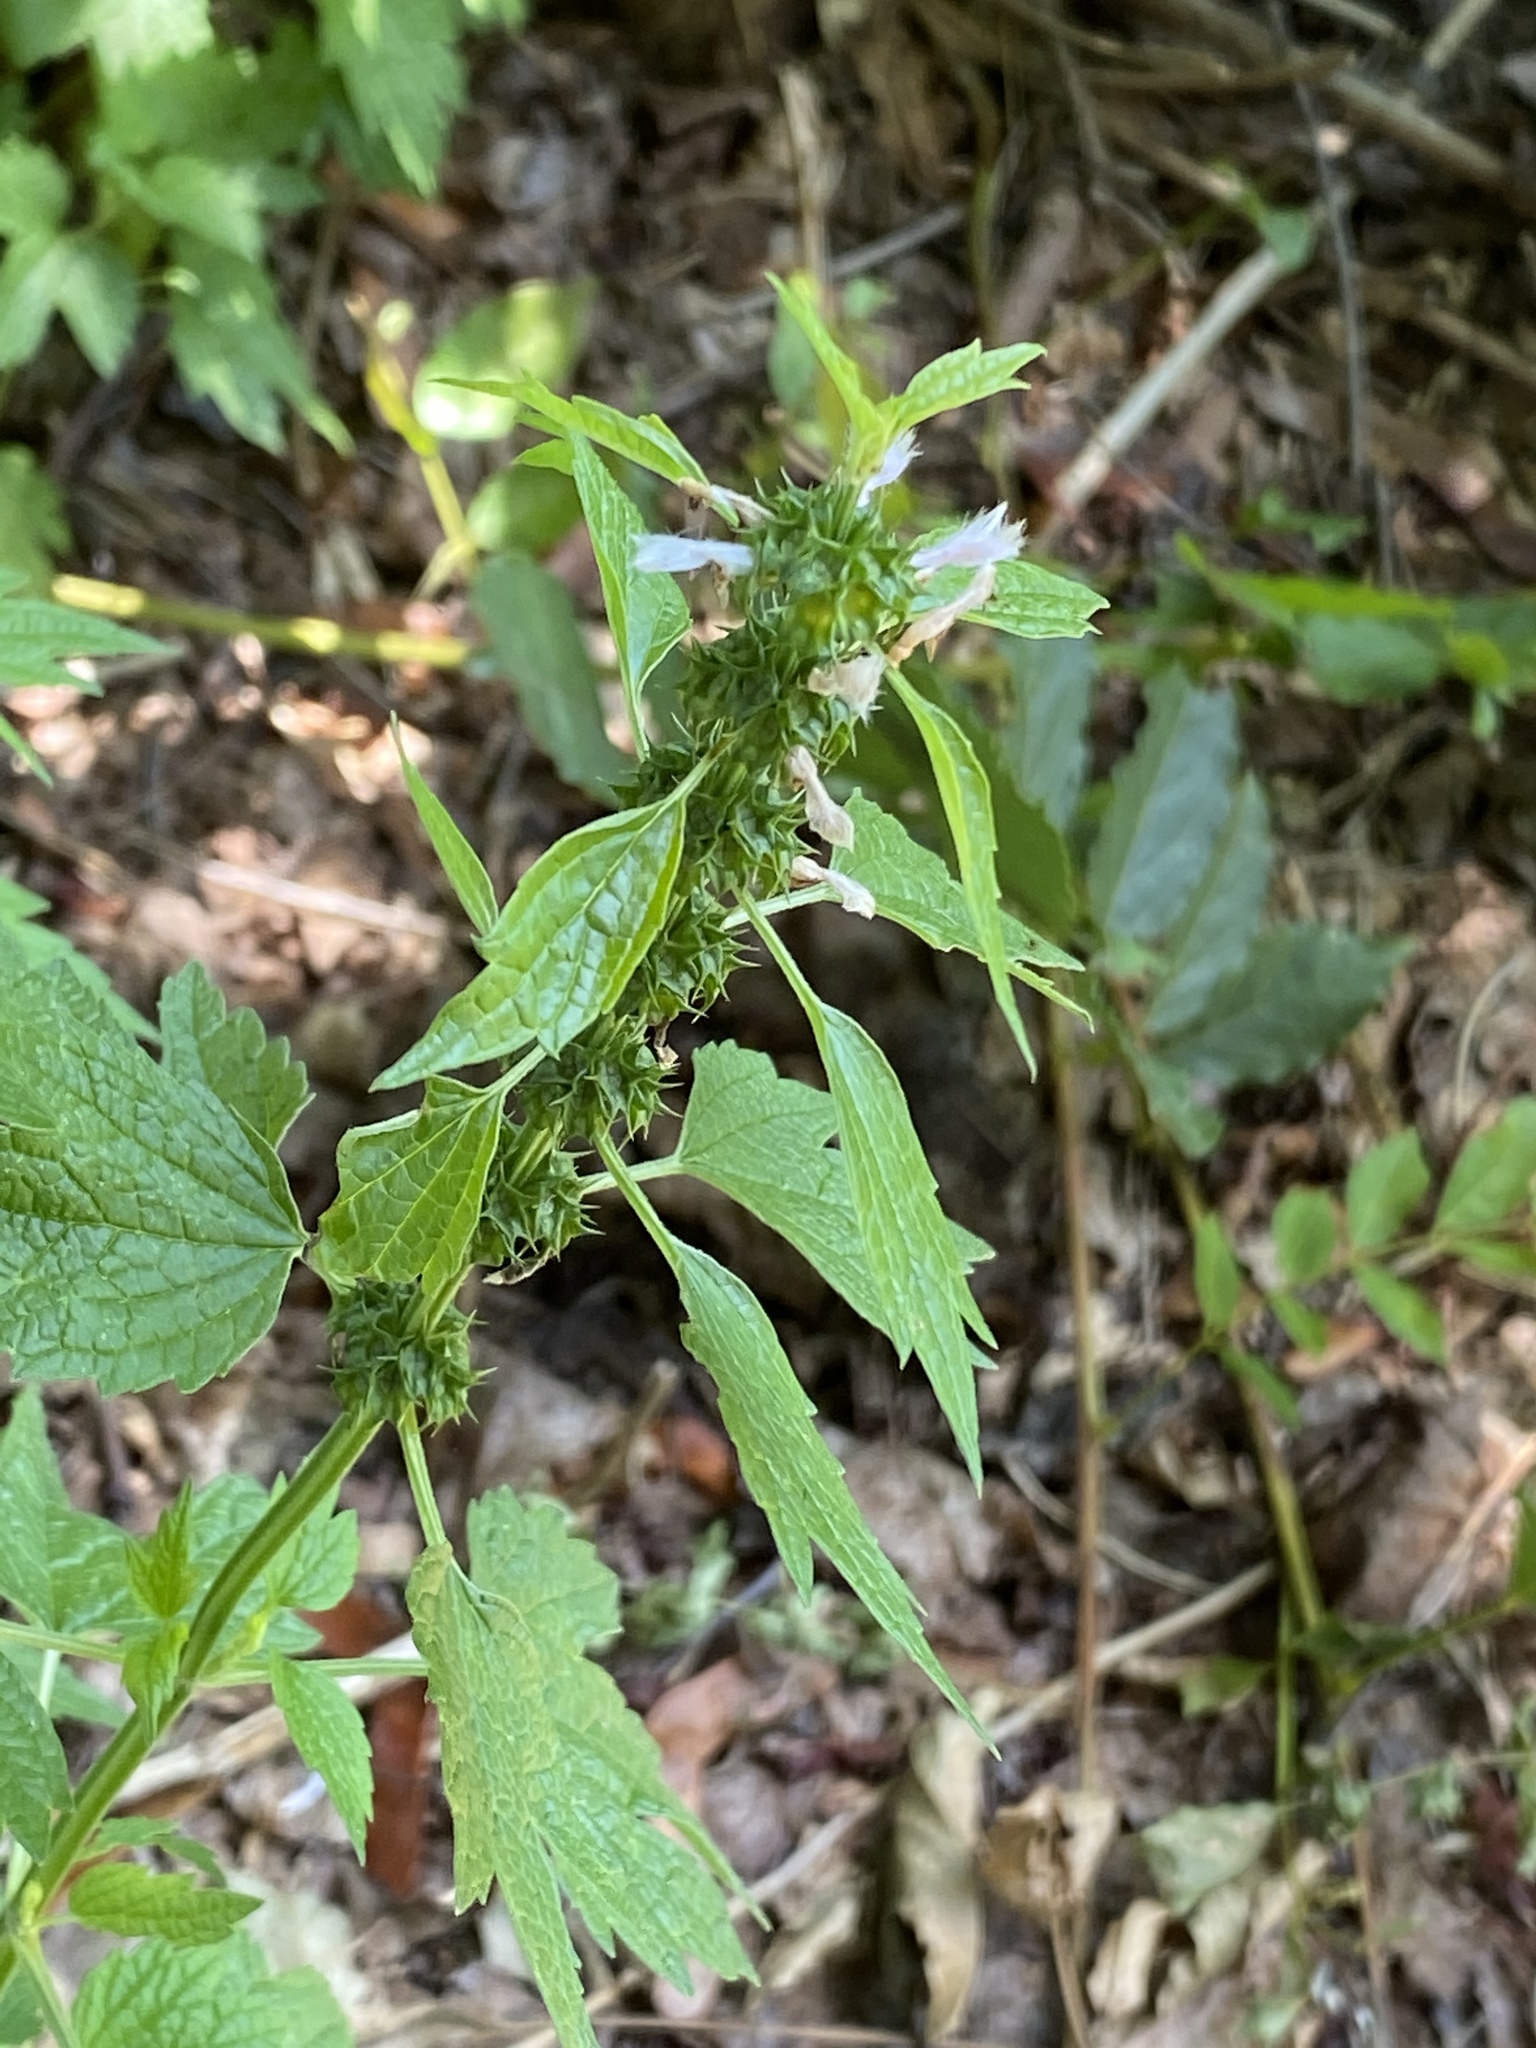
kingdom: Plantae
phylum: Tracheophyta
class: Magnoliopsida
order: Lamiales
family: Lamiaceae
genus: Leonurus
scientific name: Leonurus cardiaca
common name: Motherwort
